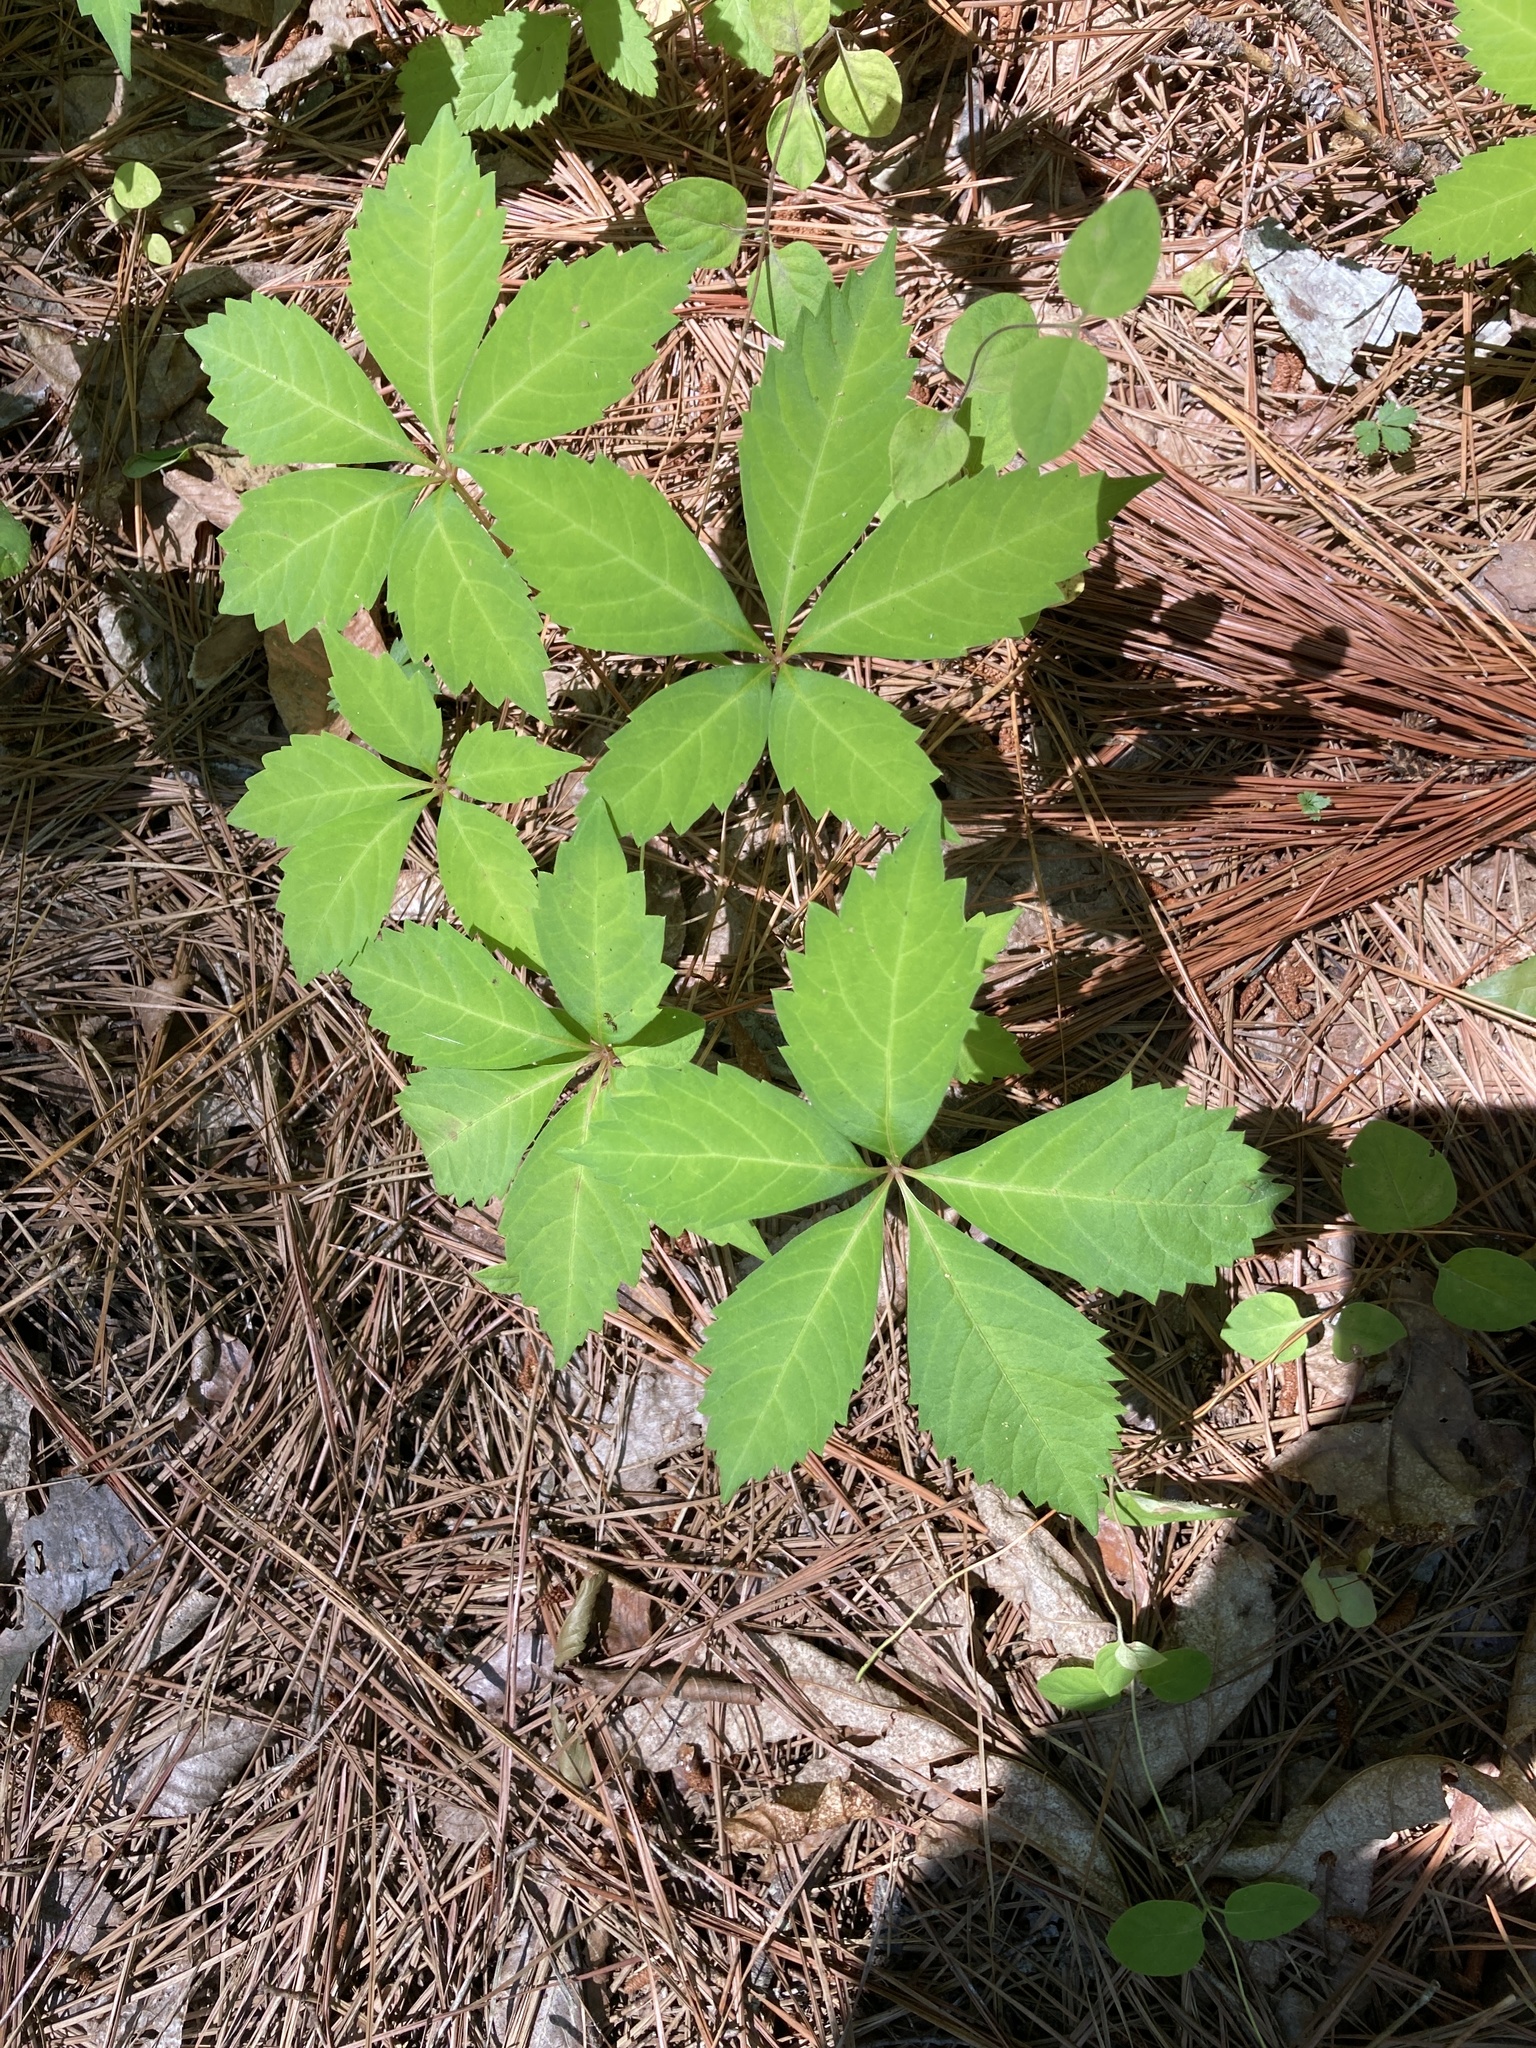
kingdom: Plantae
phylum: Tracheophyta
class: Magnoliopsida
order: Vitales
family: Vitaceae
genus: Parthenocissus
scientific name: Parthenocissus quinquefolia
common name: Virginia-creeper
